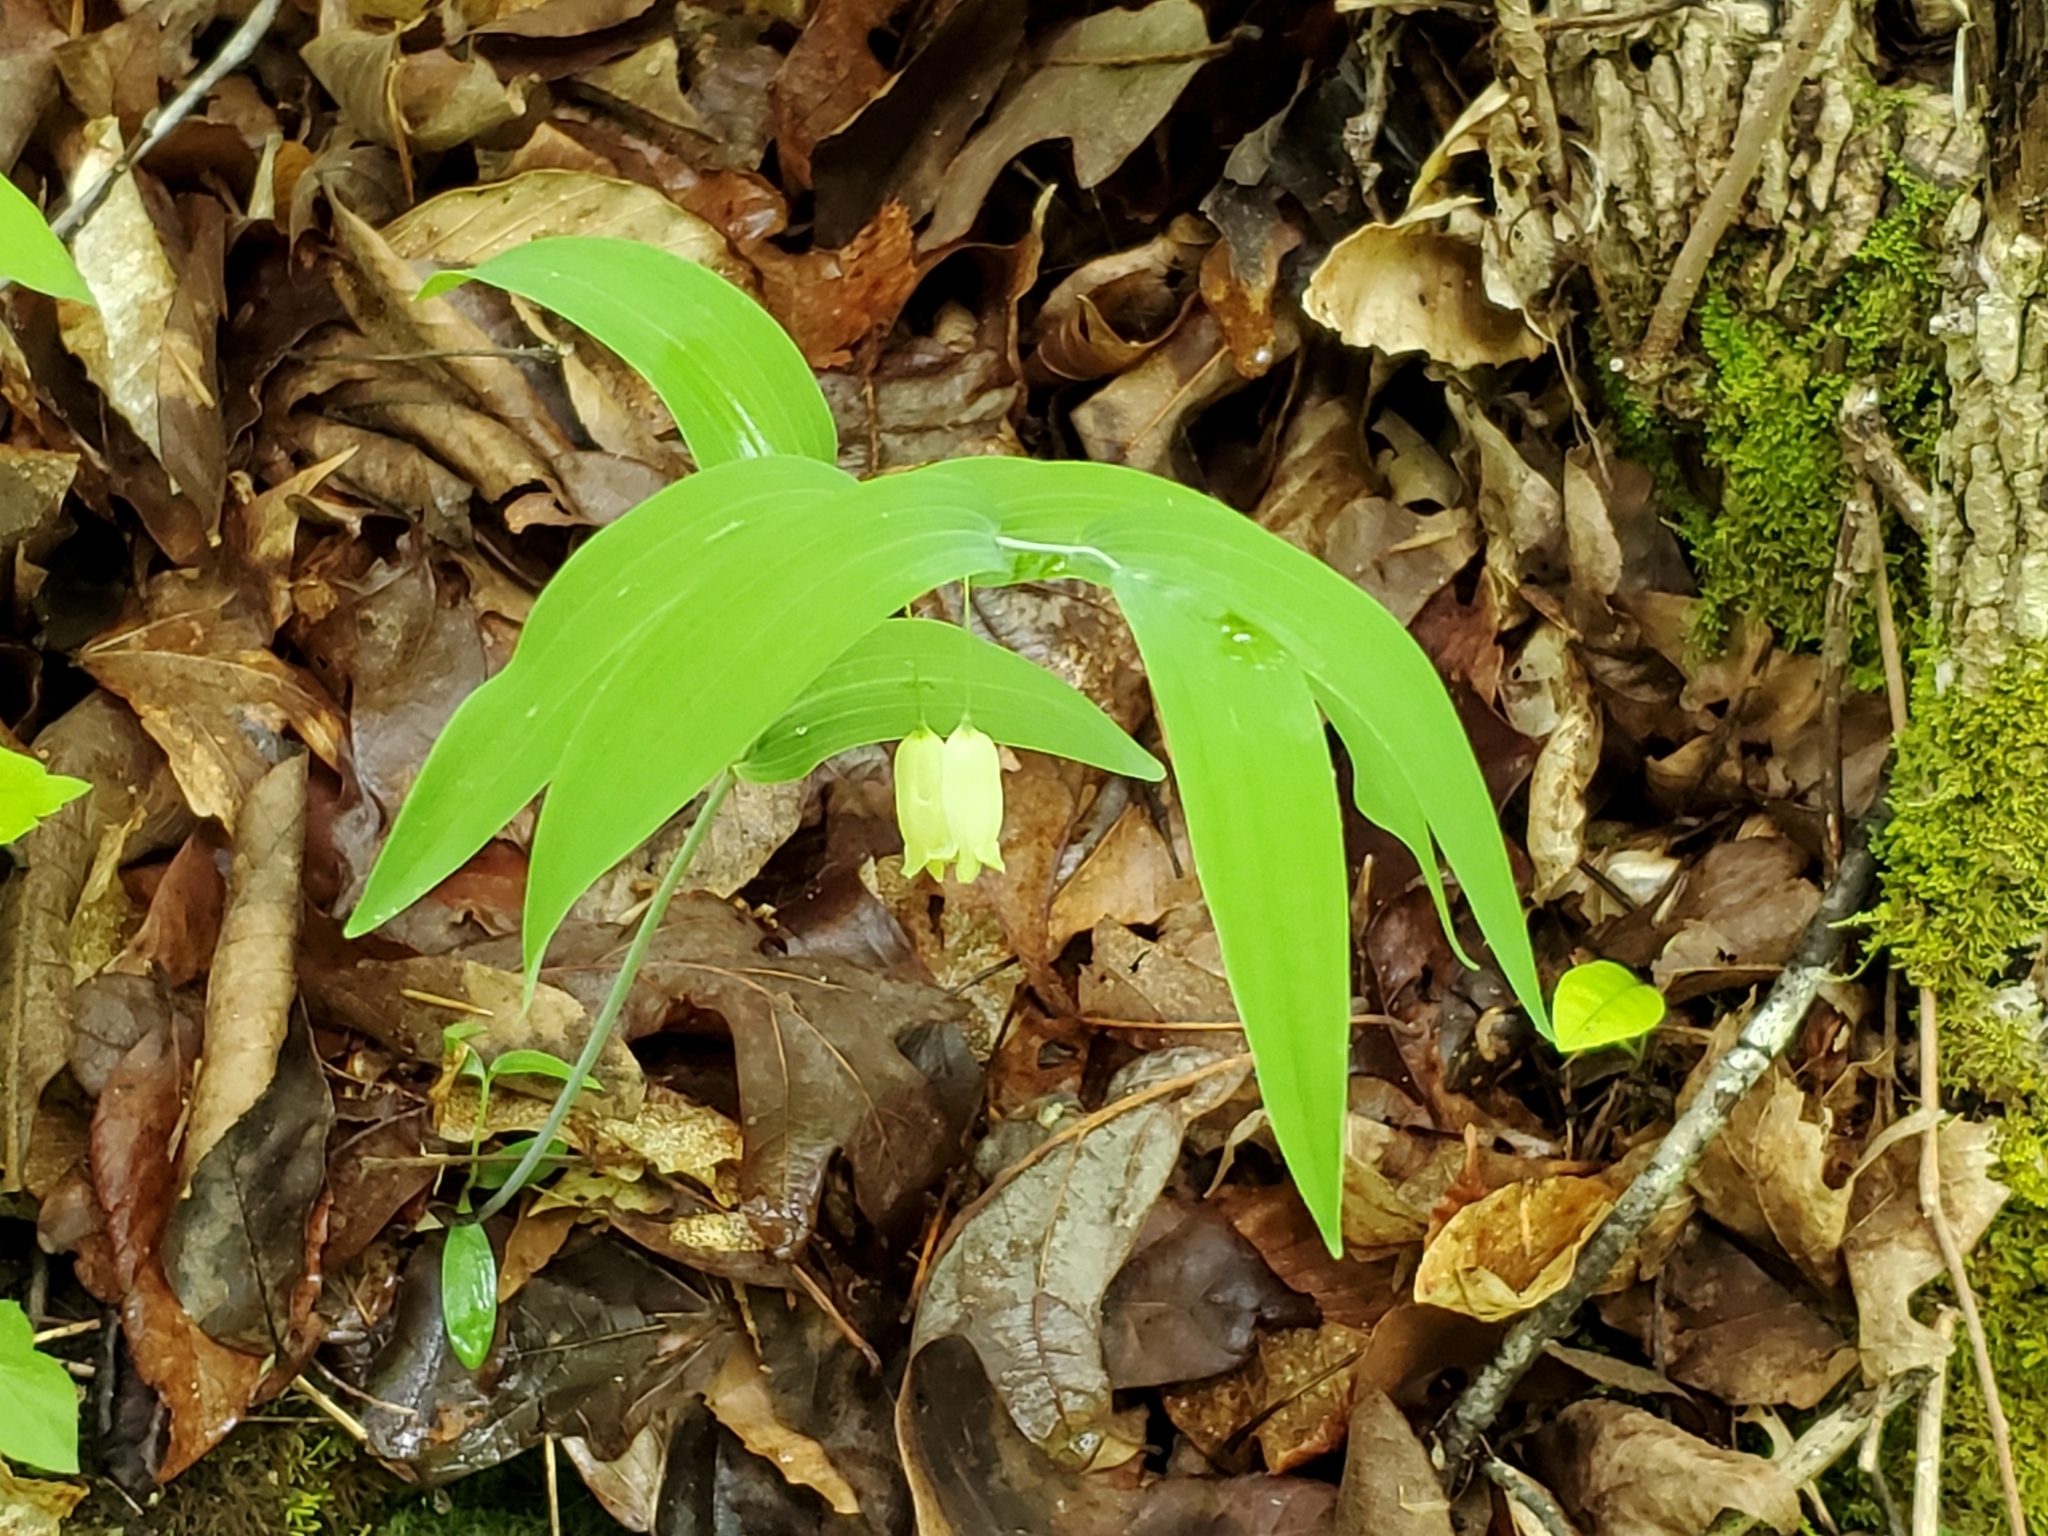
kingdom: Plantae
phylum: Tracheophyta
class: Liliopsida
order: Asparagales
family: Asparagaceae
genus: Polygonatum
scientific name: Polygonatum biflorum
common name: American solomon's-seal
